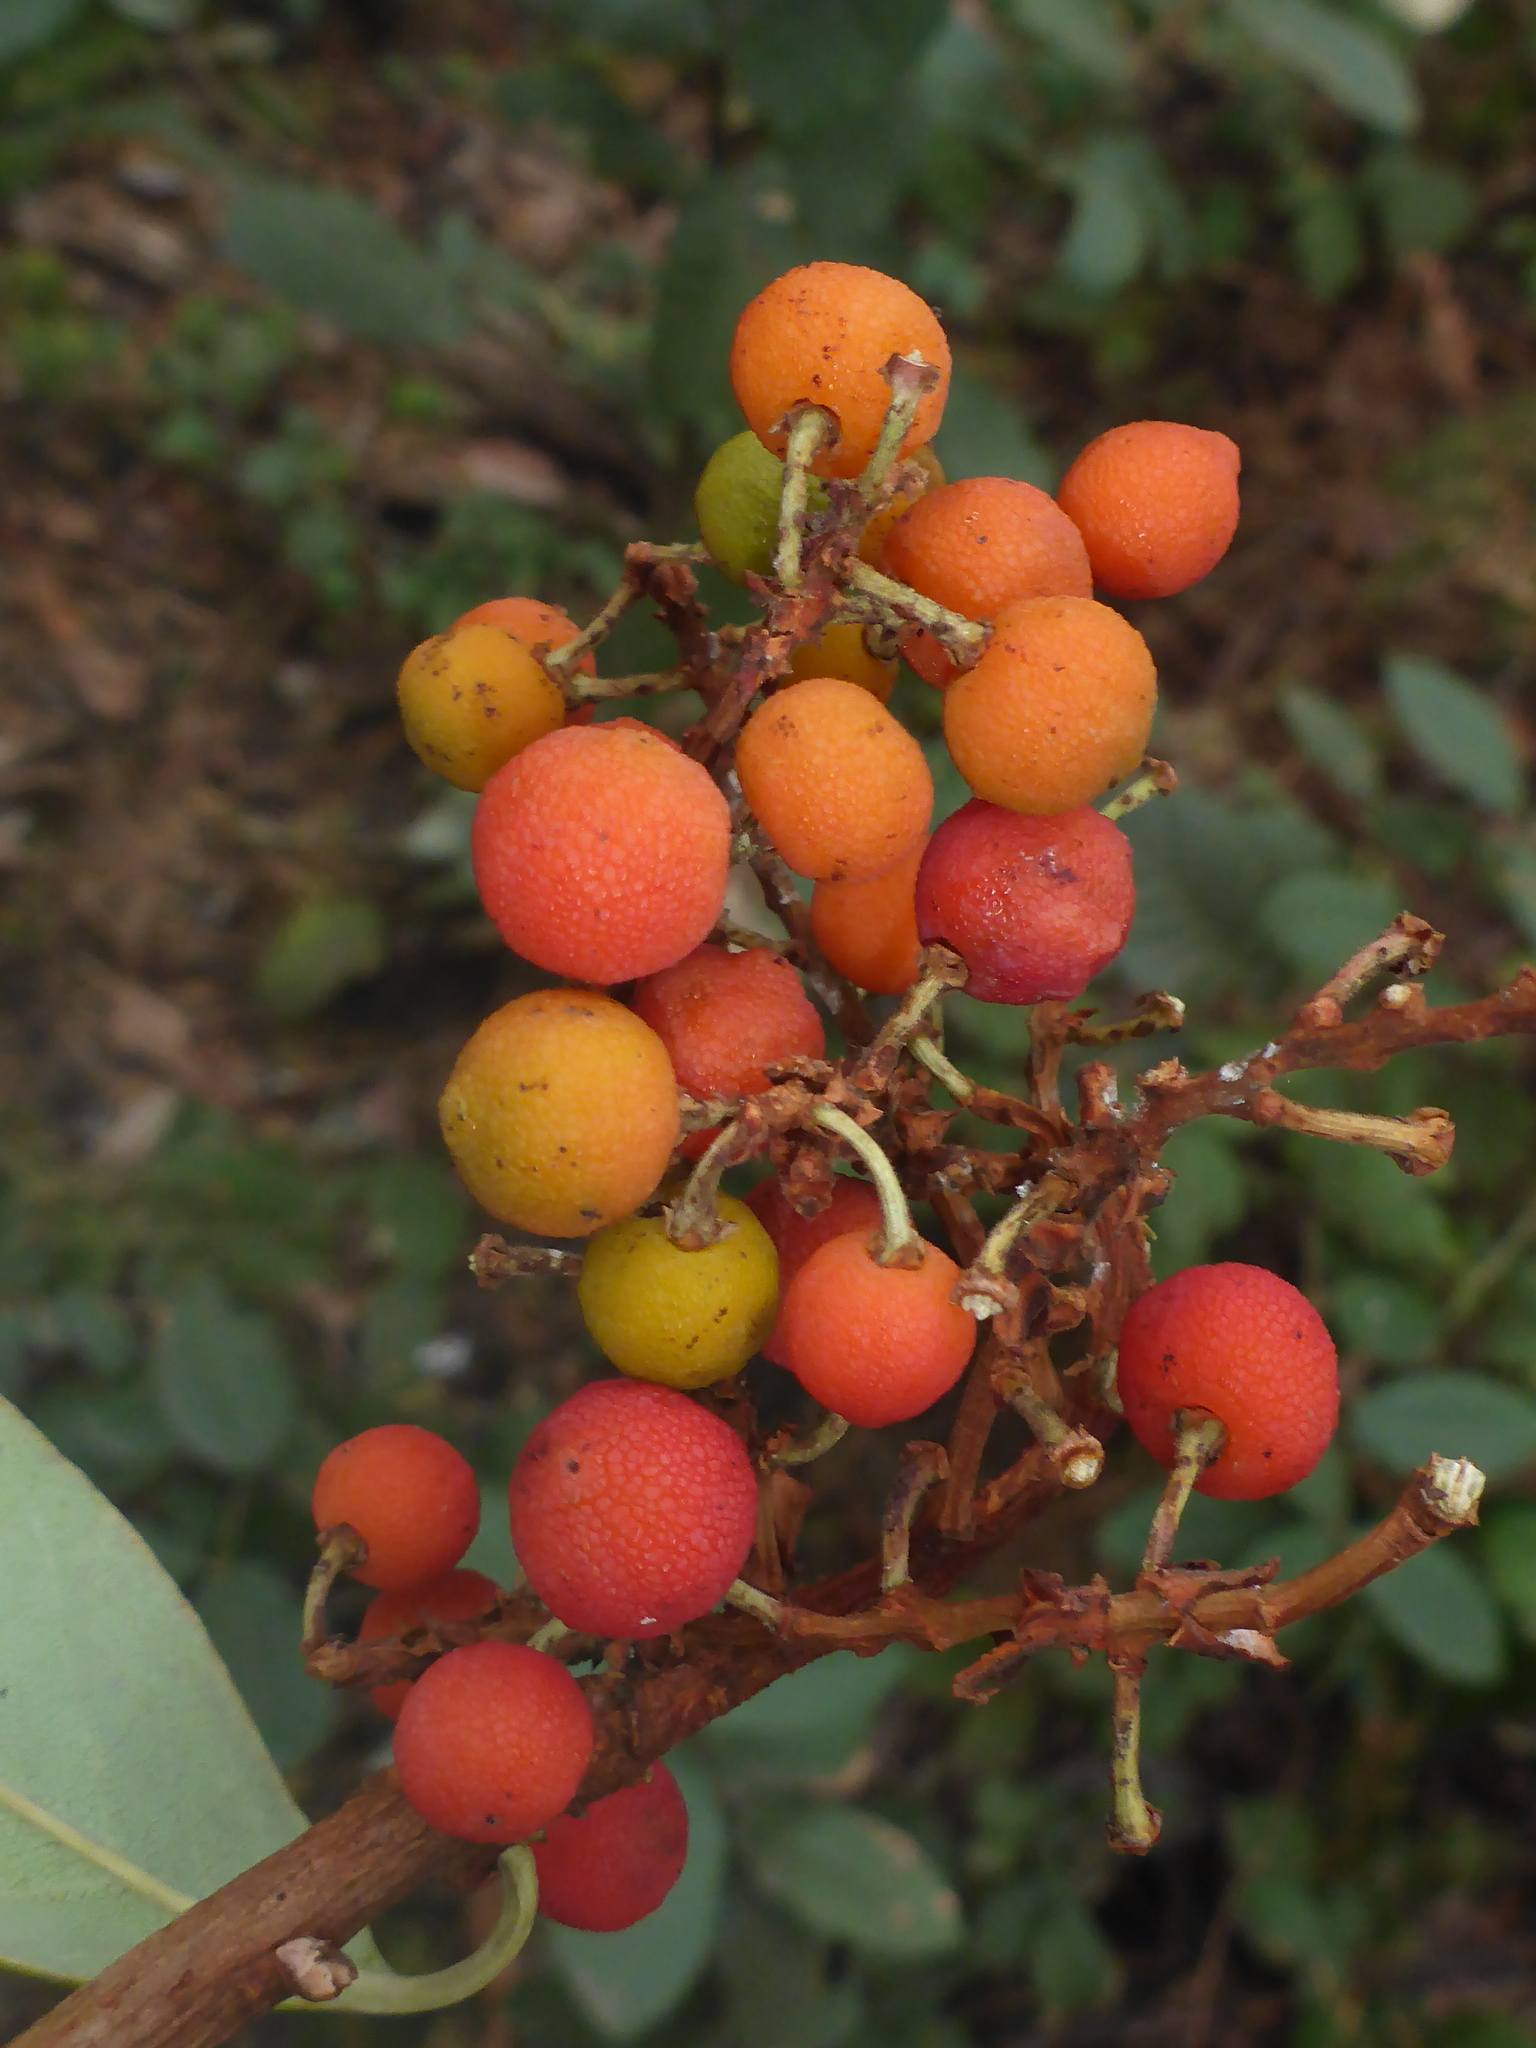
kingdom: Plantae
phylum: Tracheophyta
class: Magnoliopsida
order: Ericales
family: Ericaceae
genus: Arbutus
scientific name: Arbutus menziesii
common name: Pacific madrone
